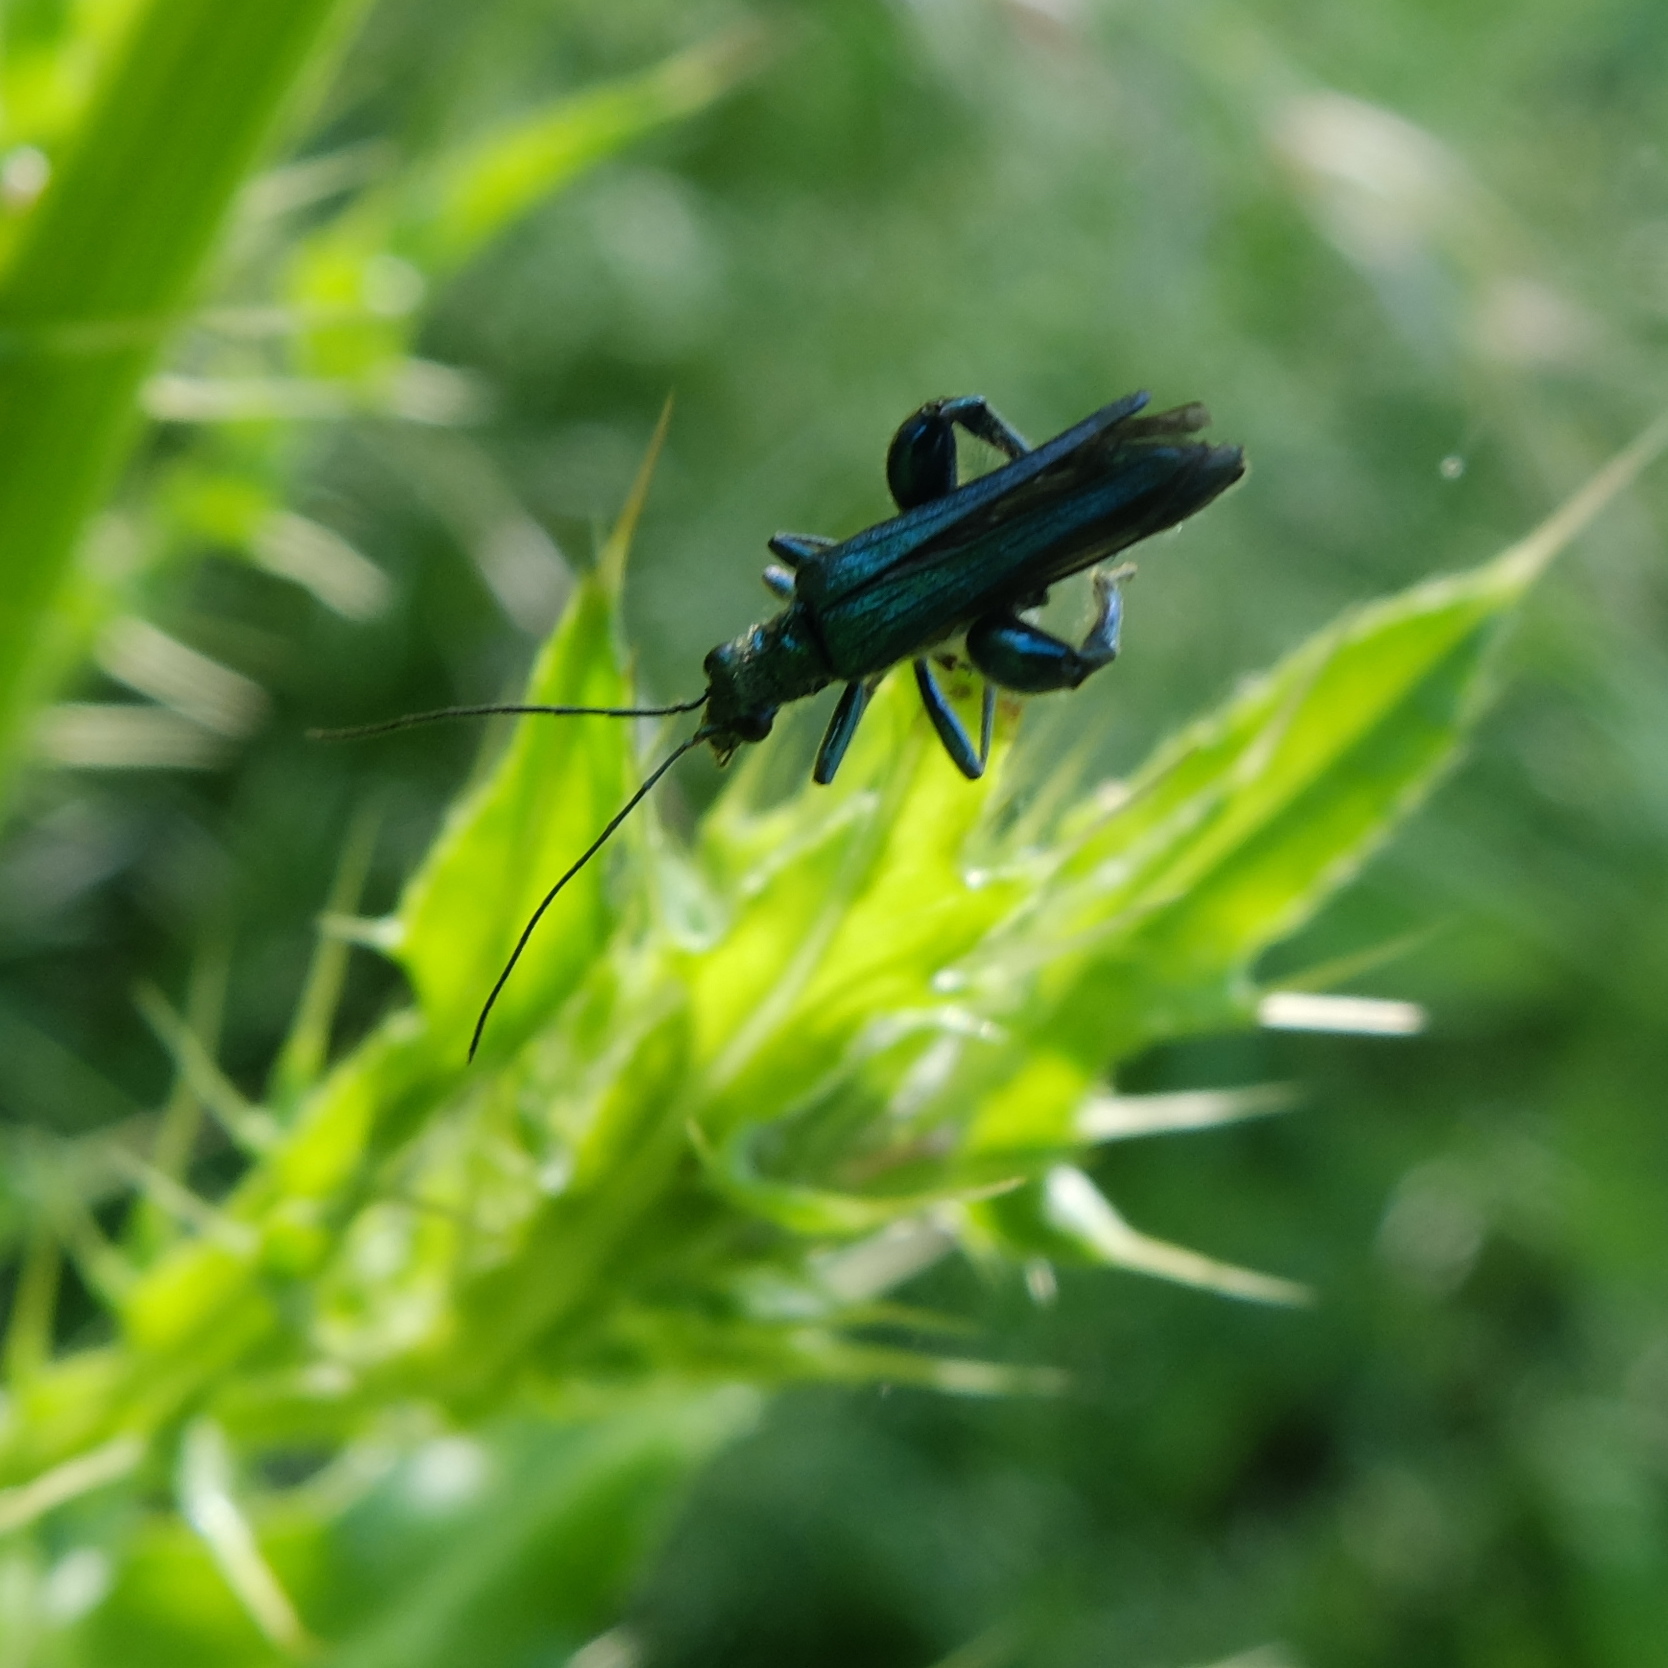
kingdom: Animalia
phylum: Arthropoda
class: Insecta
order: Coleoptera
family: Oedemeridae
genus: Oedemera
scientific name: Oedemera nobilis
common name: Swollen-thighed beetle
